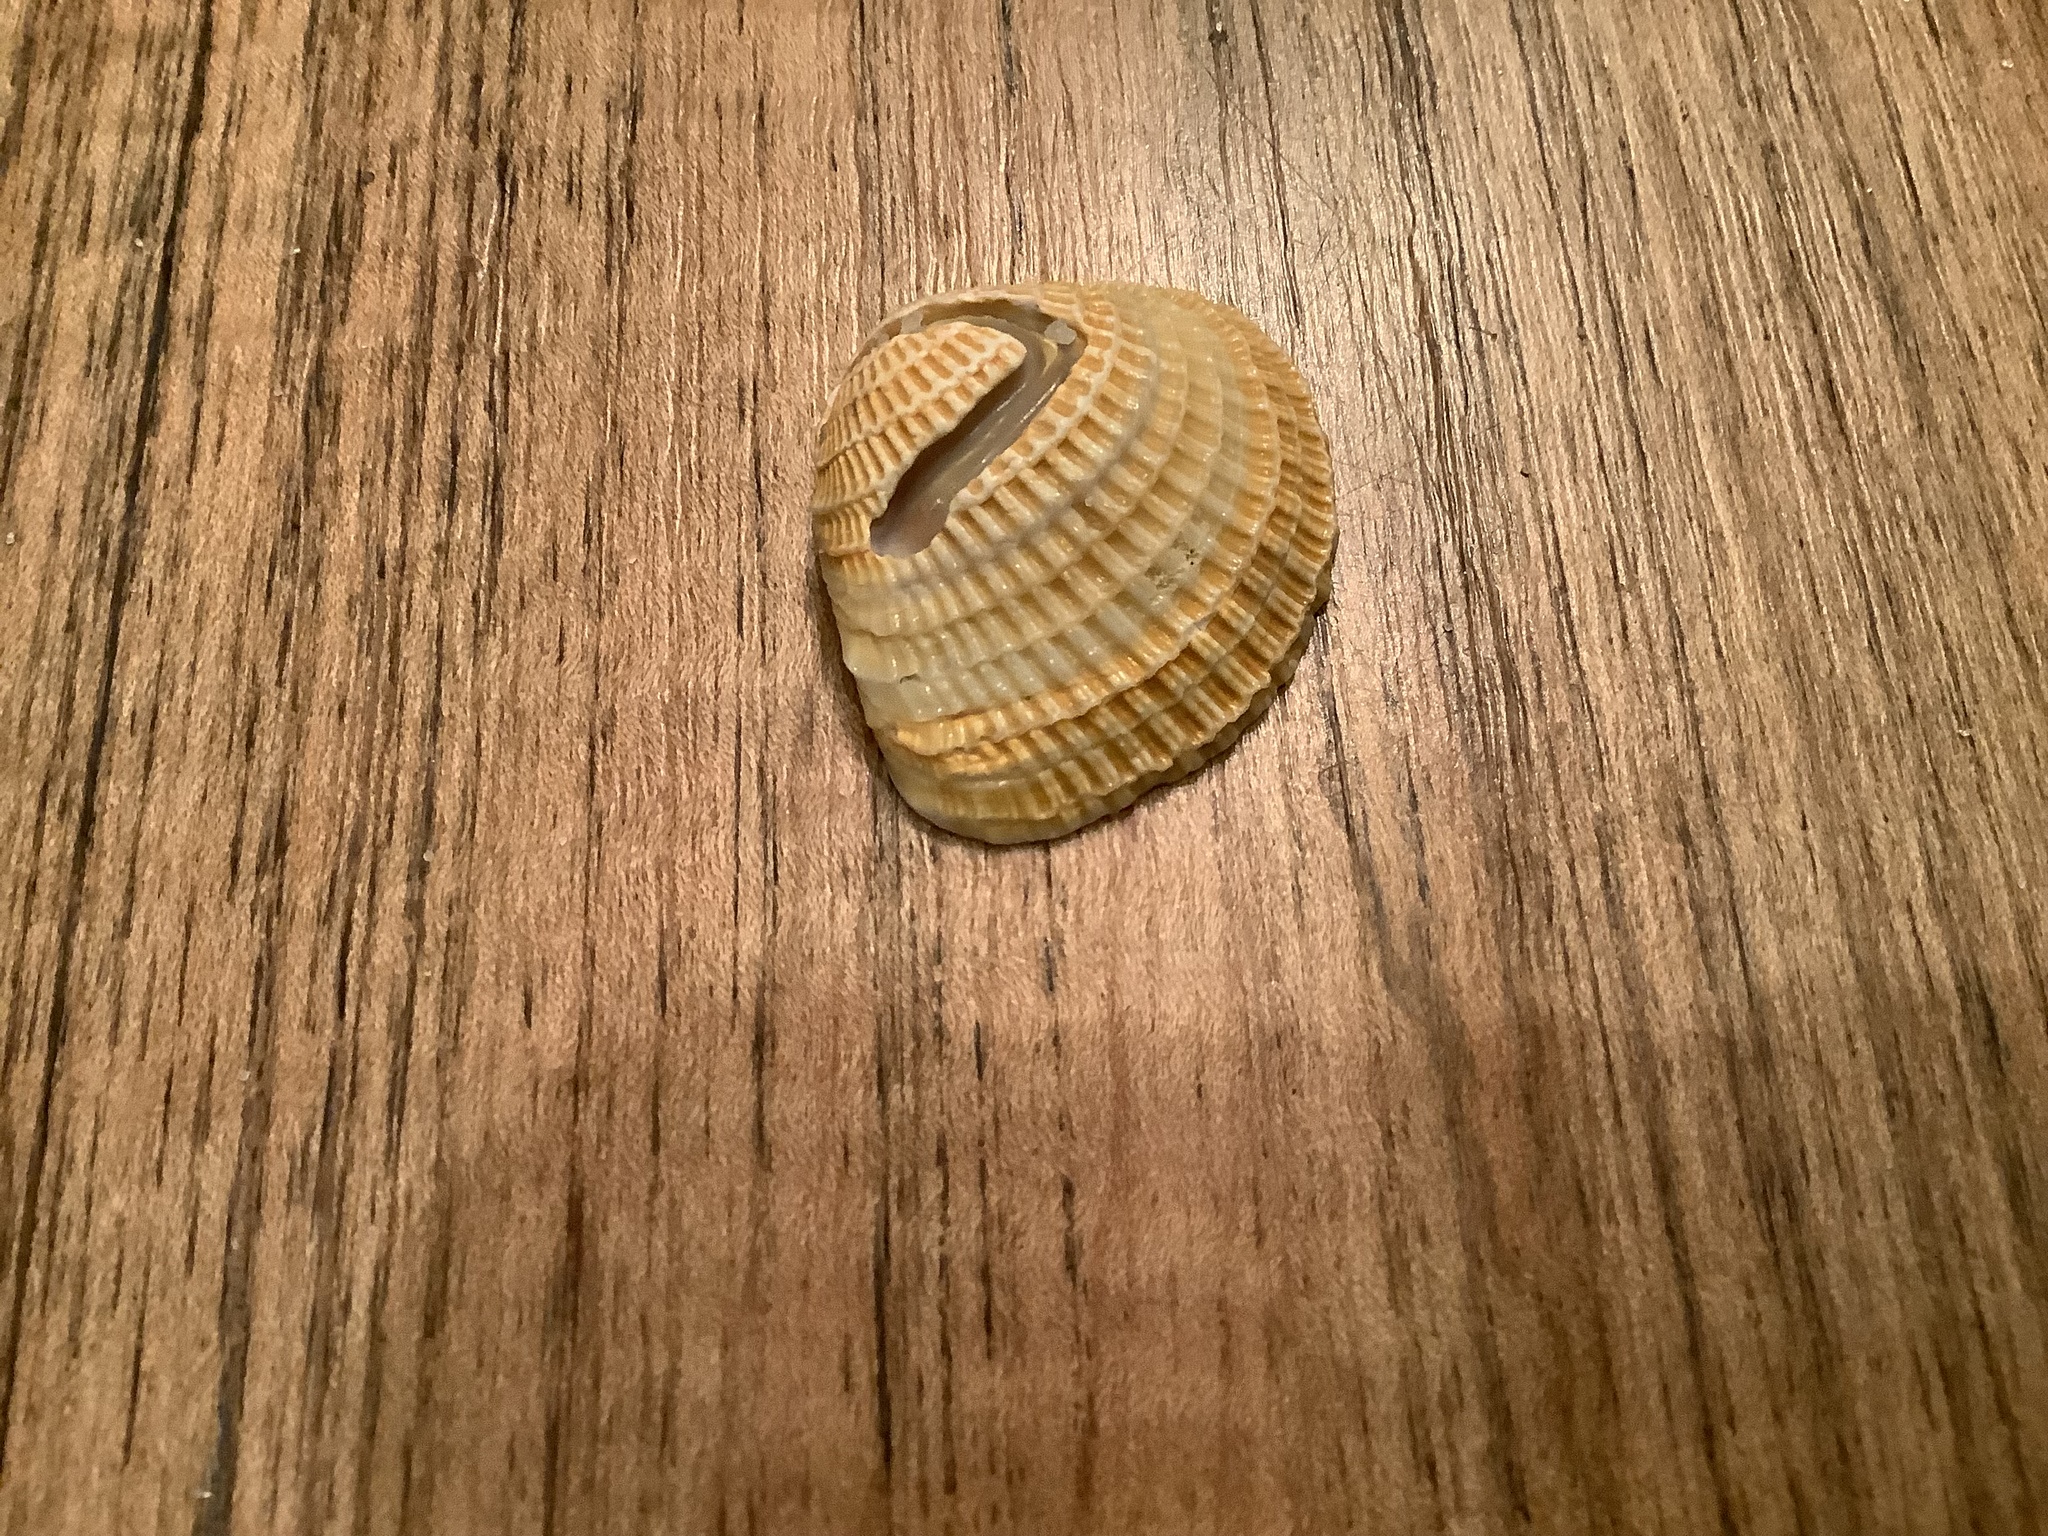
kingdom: Animalia
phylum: Mollusca
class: Bivalvia
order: Venerida
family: Veneridae
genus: Chione
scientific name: Chione elevata
